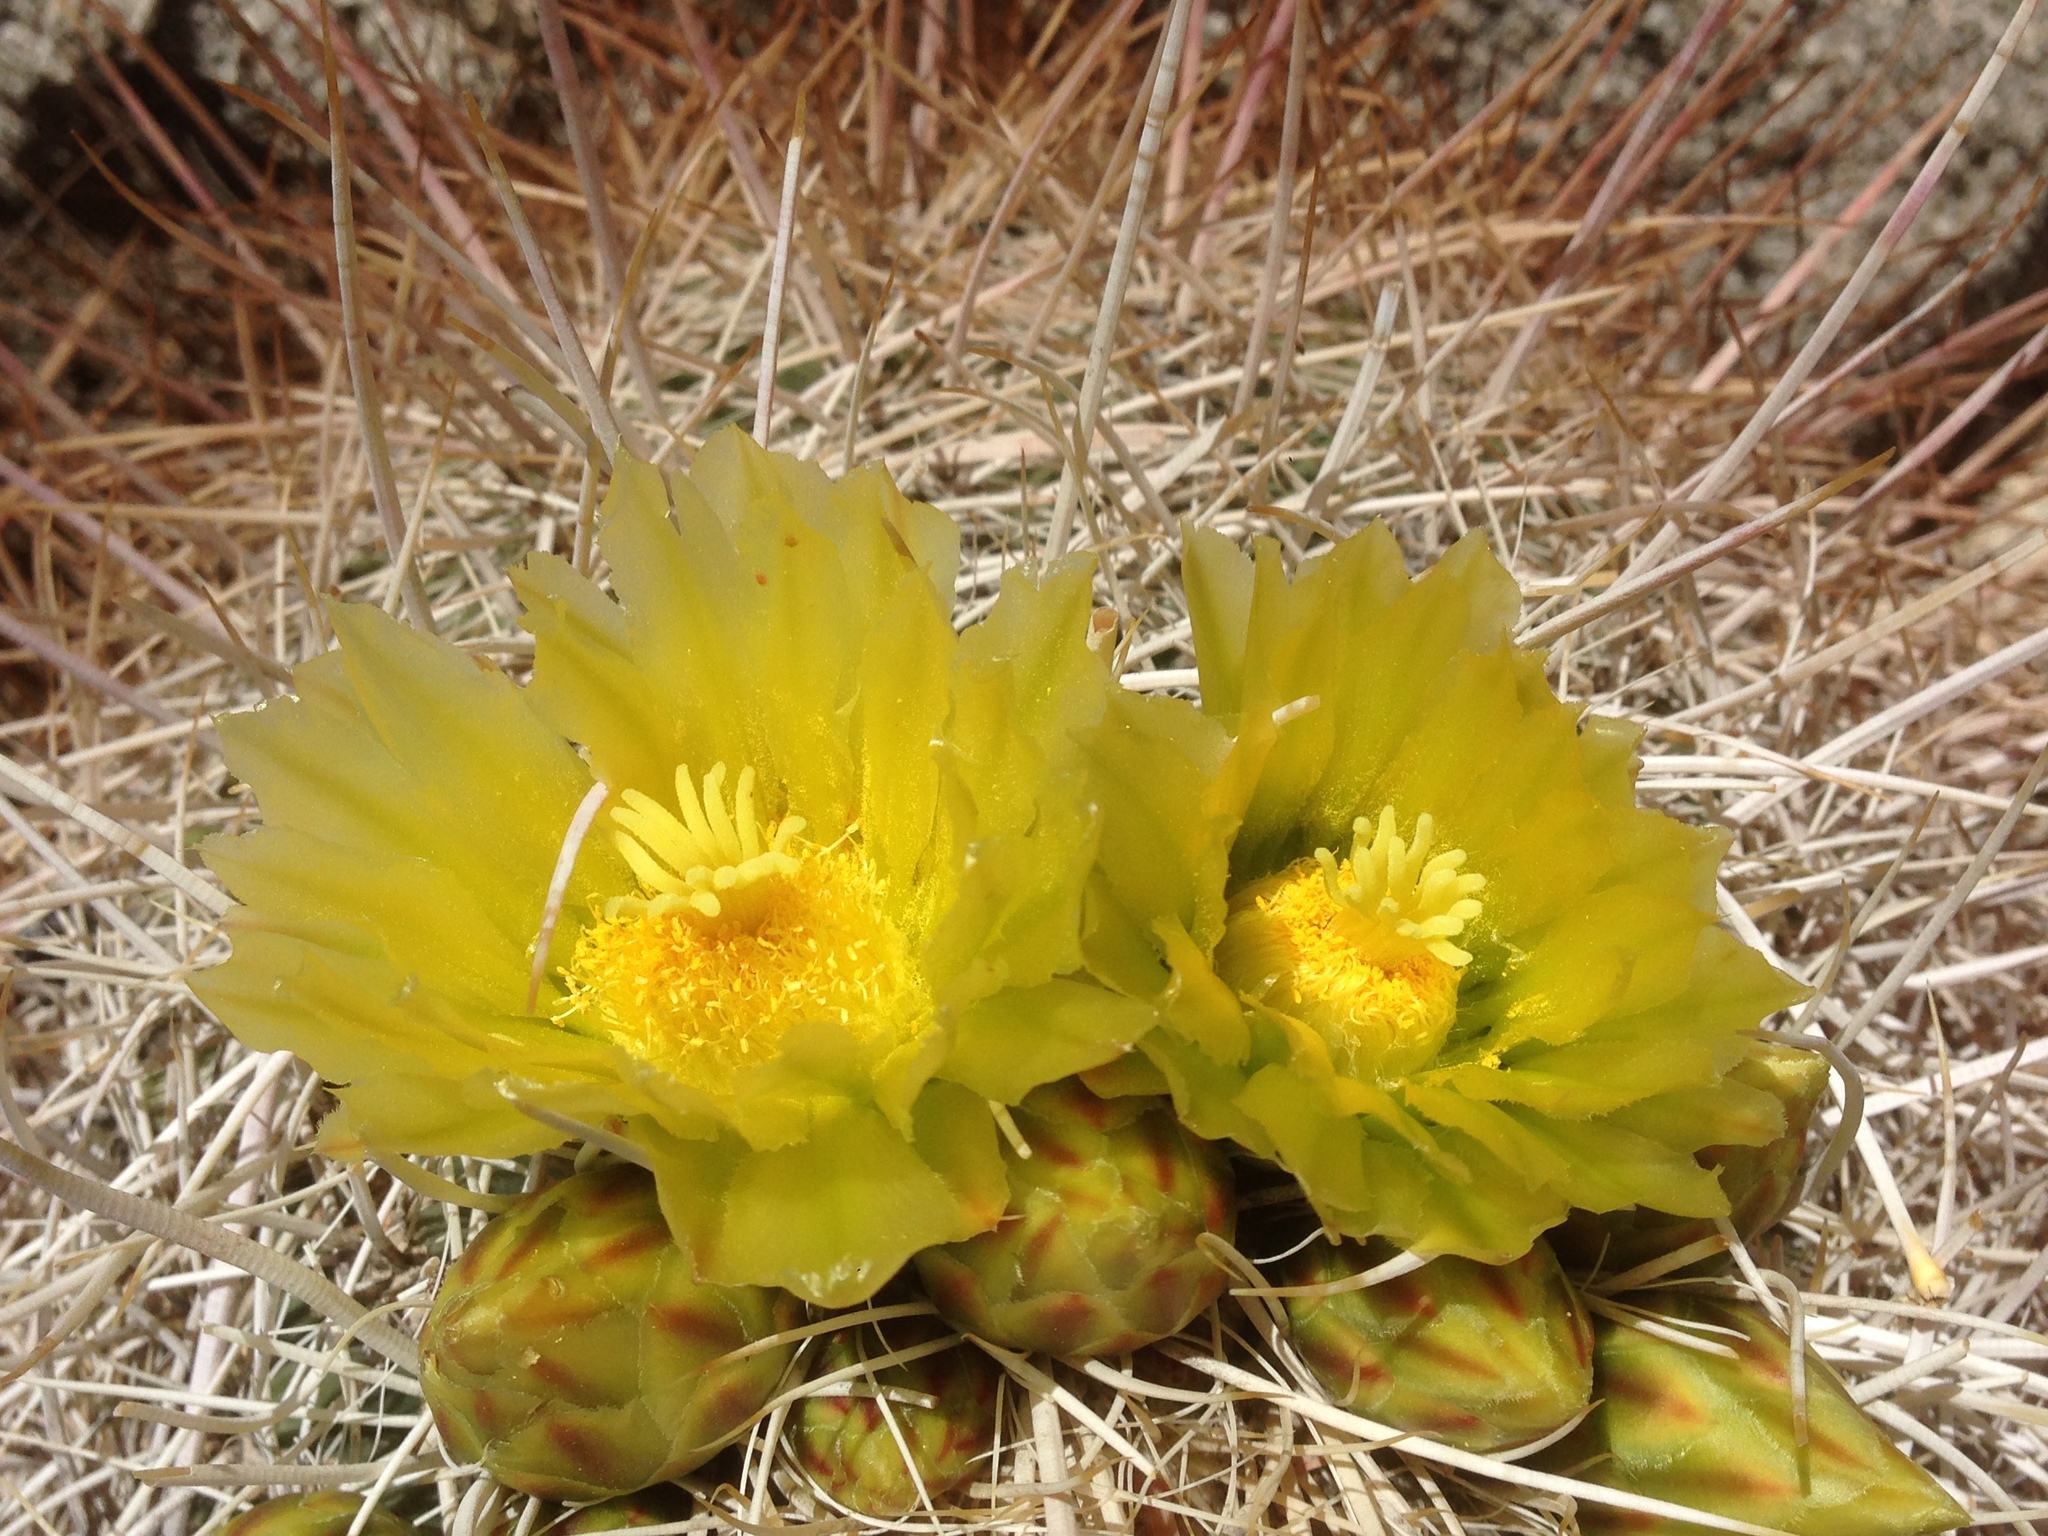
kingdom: Plantae
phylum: Tracheophyta
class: Magnoliopsida
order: Caryophyllales
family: Cactaceae
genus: Ferocactus
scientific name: Ferocactus cylindraceus
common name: California barrel cactus
